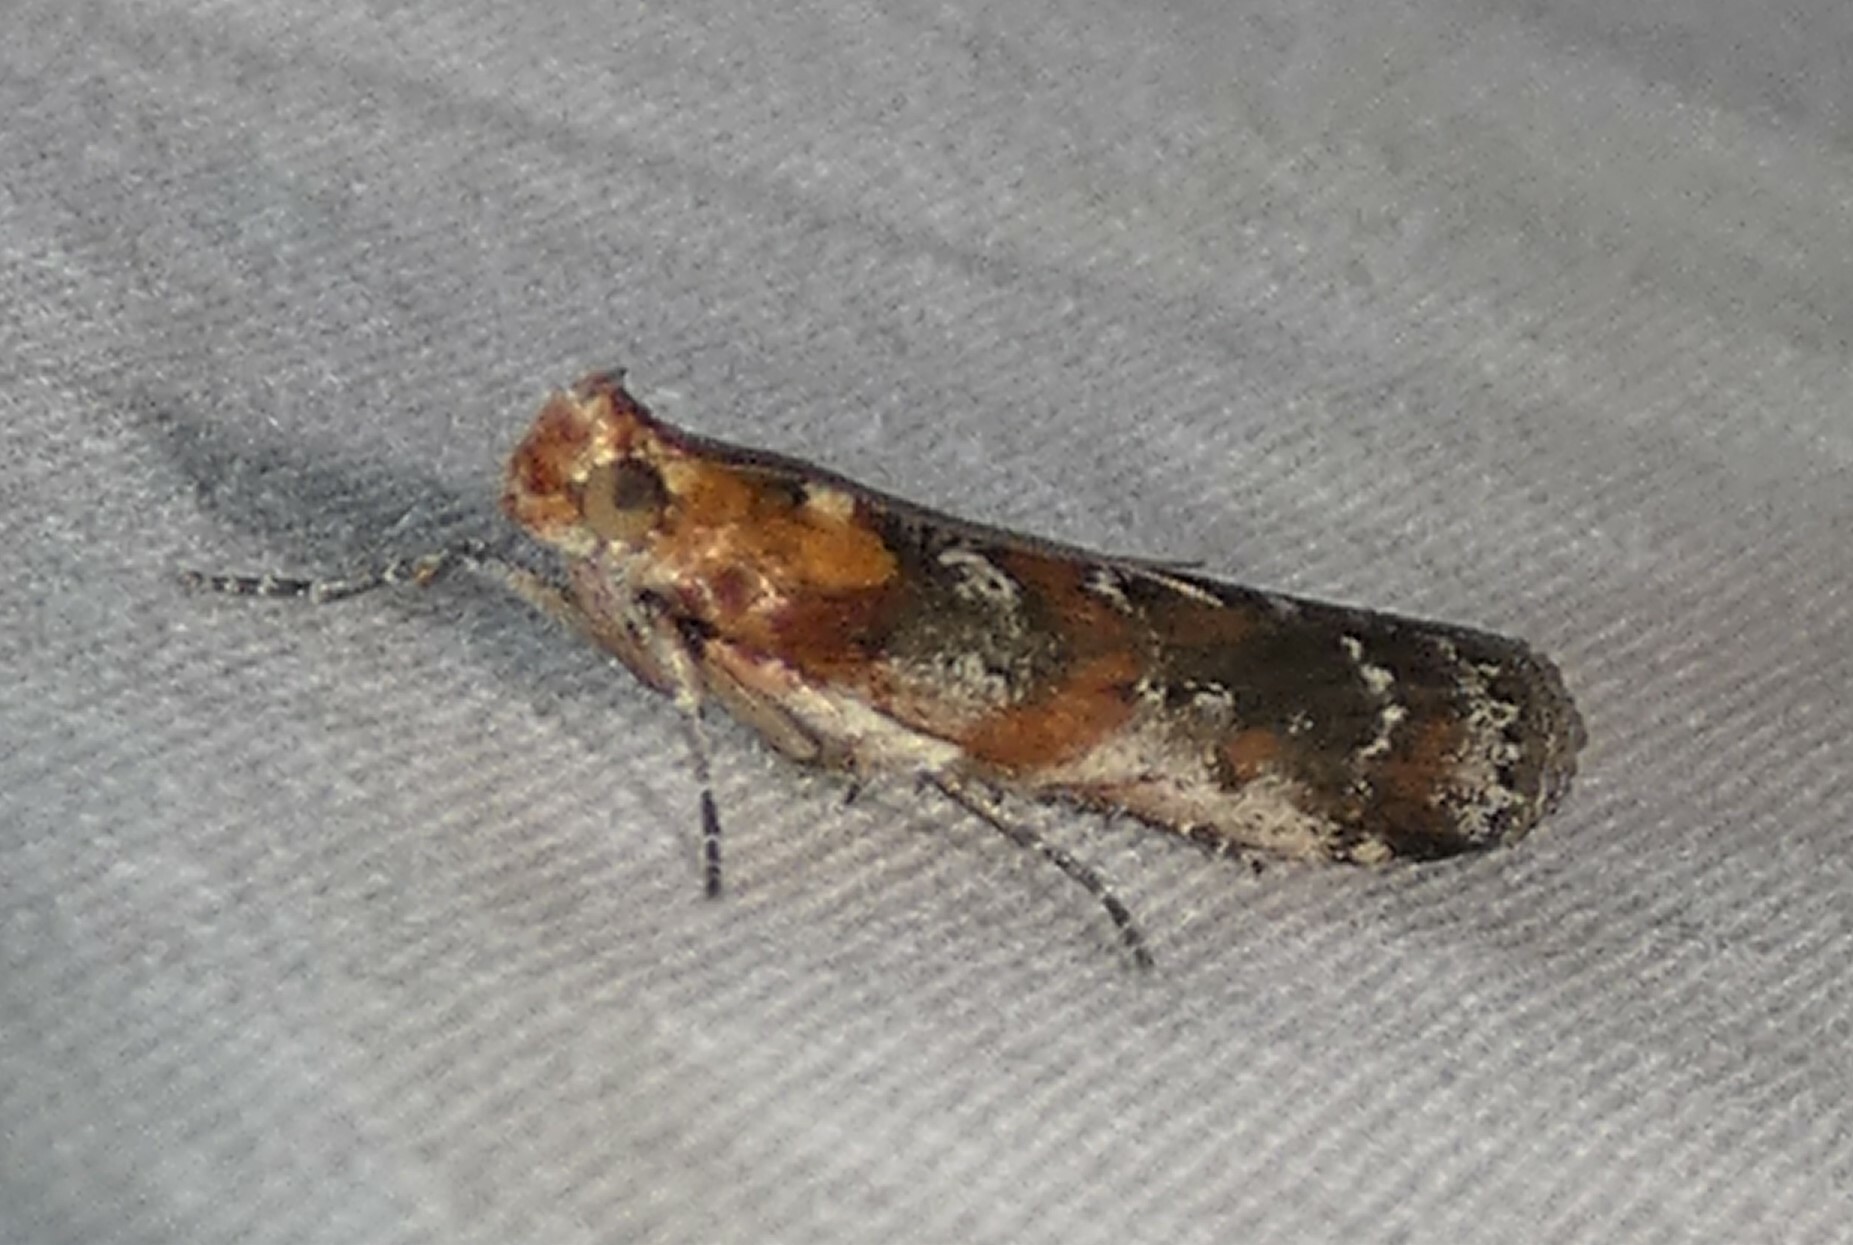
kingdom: Animalia
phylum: Arthropoda
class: Insecta
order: Lepidoptera
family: Pyralidae
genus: Adelphia
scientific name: Adelphia petrella
